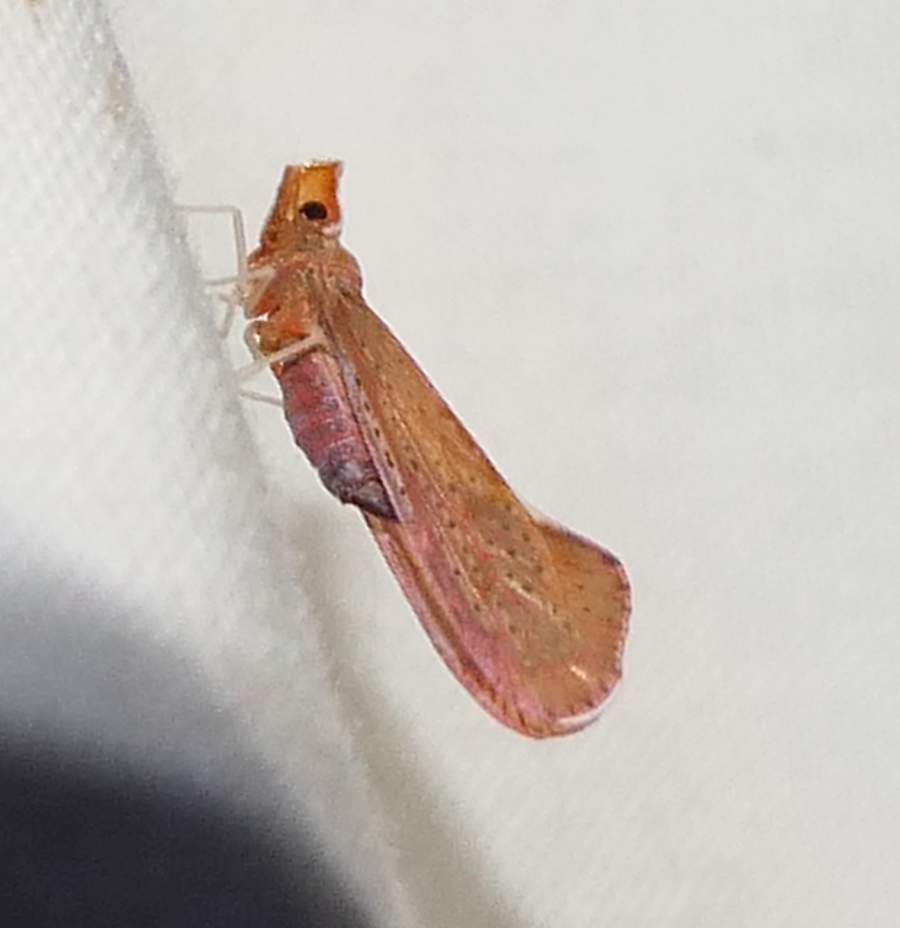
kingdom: Animalia
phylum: Arthropoda
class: Insecta
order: Hemiptera
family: Derbidae
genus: Apache
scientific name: Apache degeeri
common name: Red-fanned planthopper
